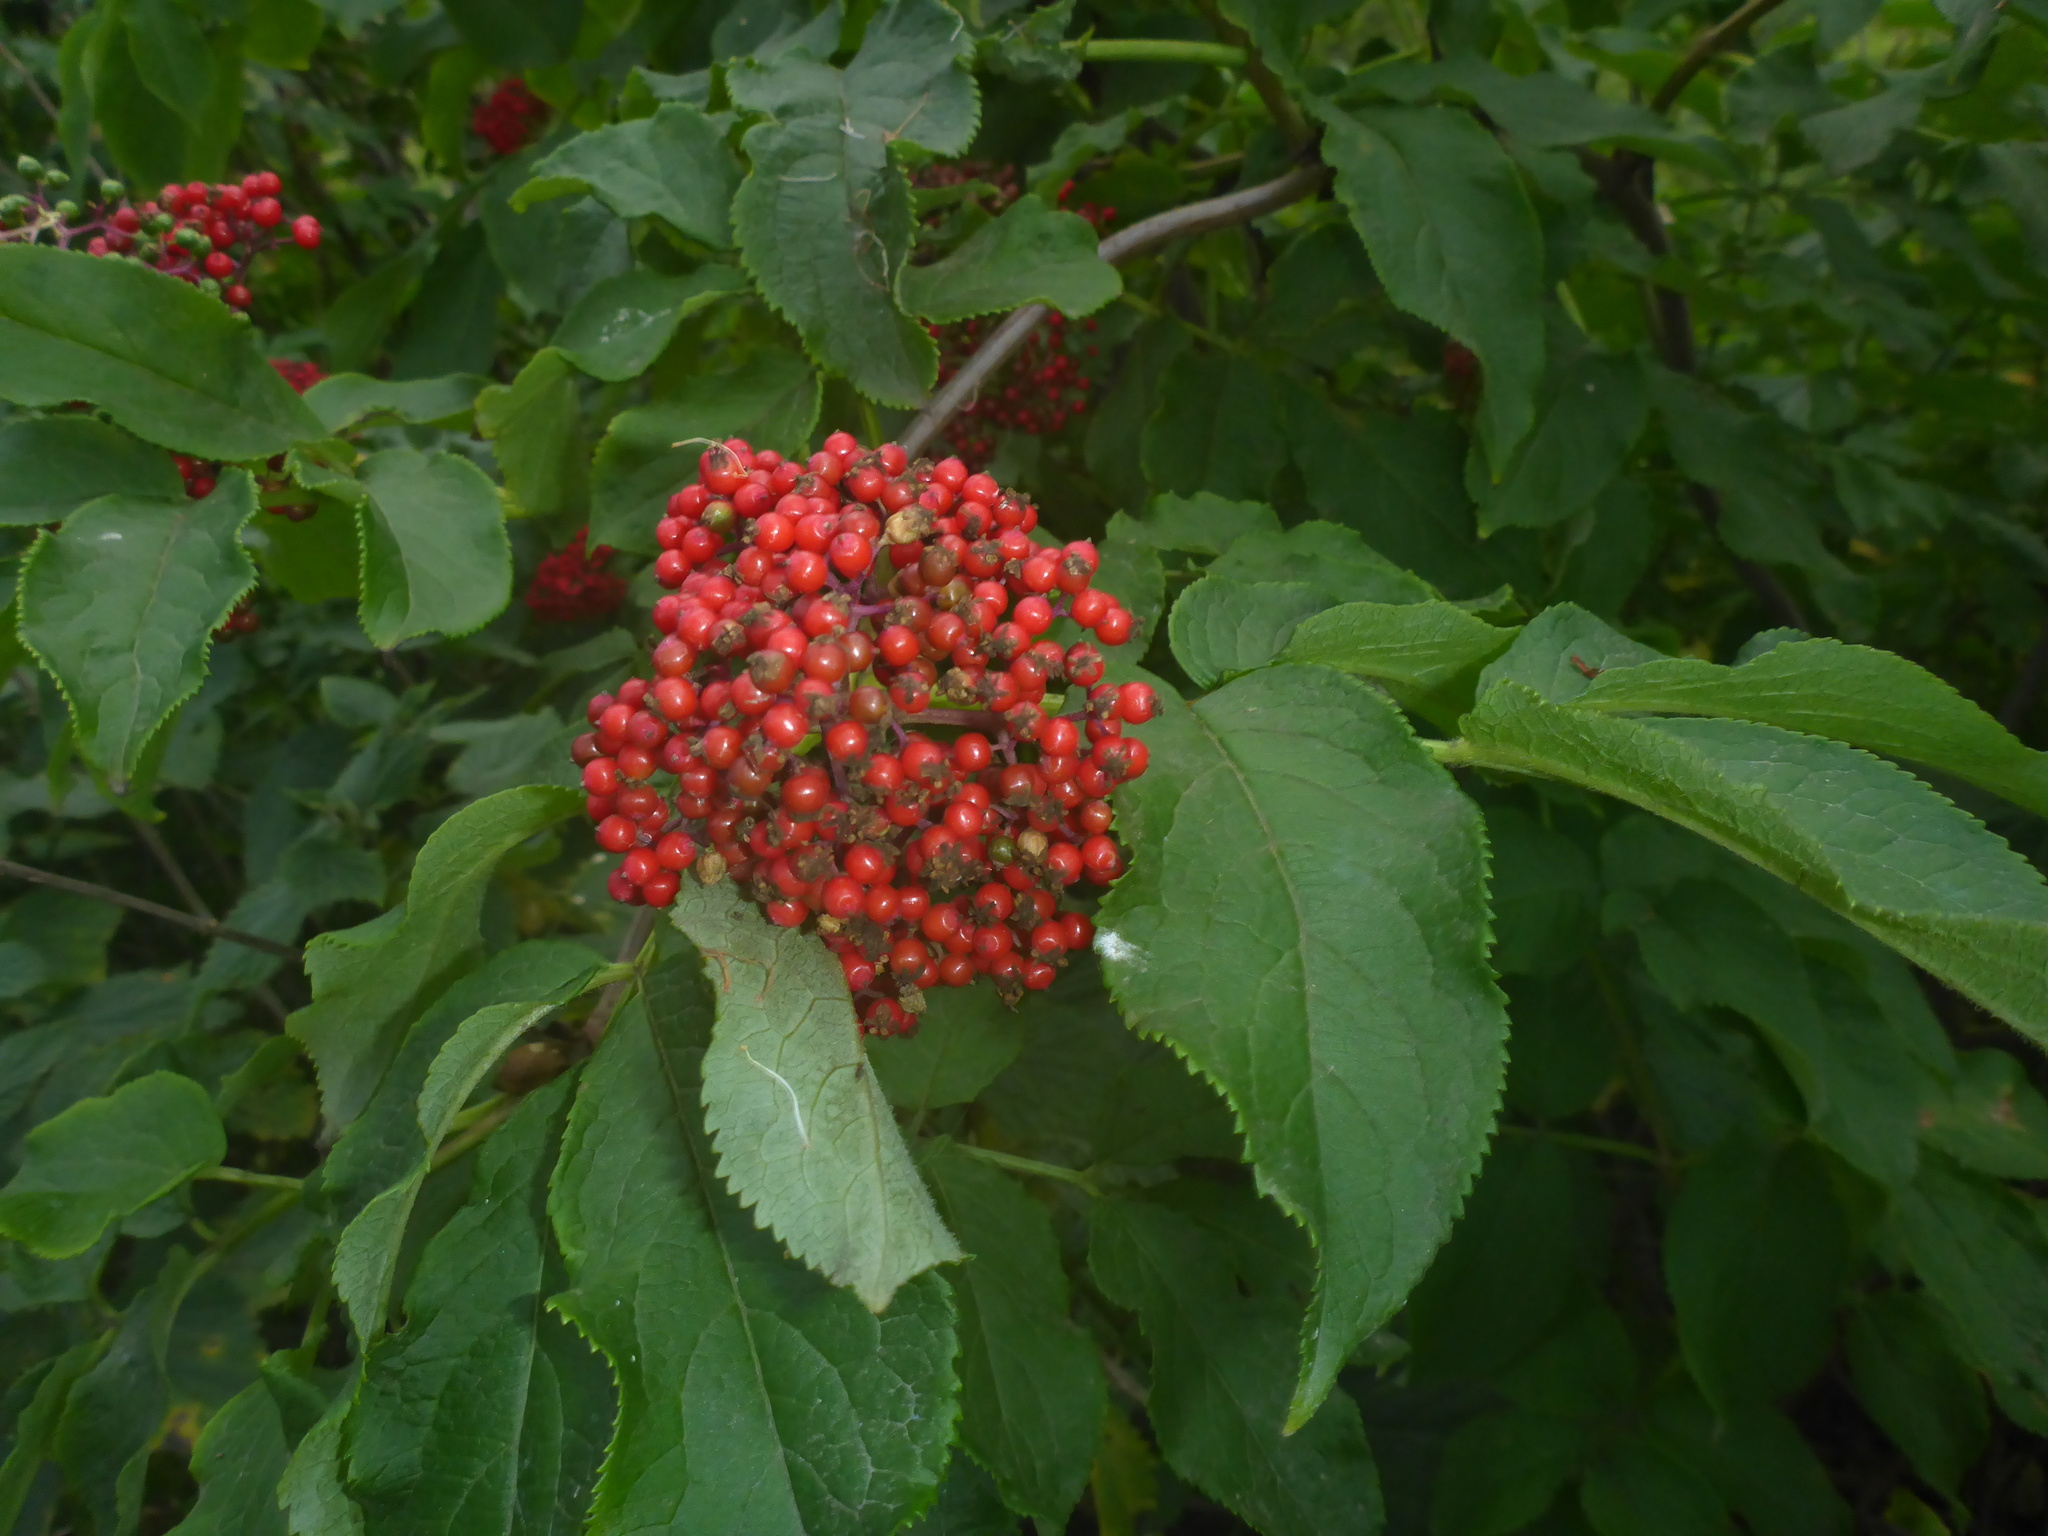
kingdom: Plantae
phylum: Tracheophyta
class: Magnoliopsida
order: Dipsacales
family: Viburnaceae
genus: Sambucus
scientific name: Sambucus racemosa
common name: Red-berried elder
